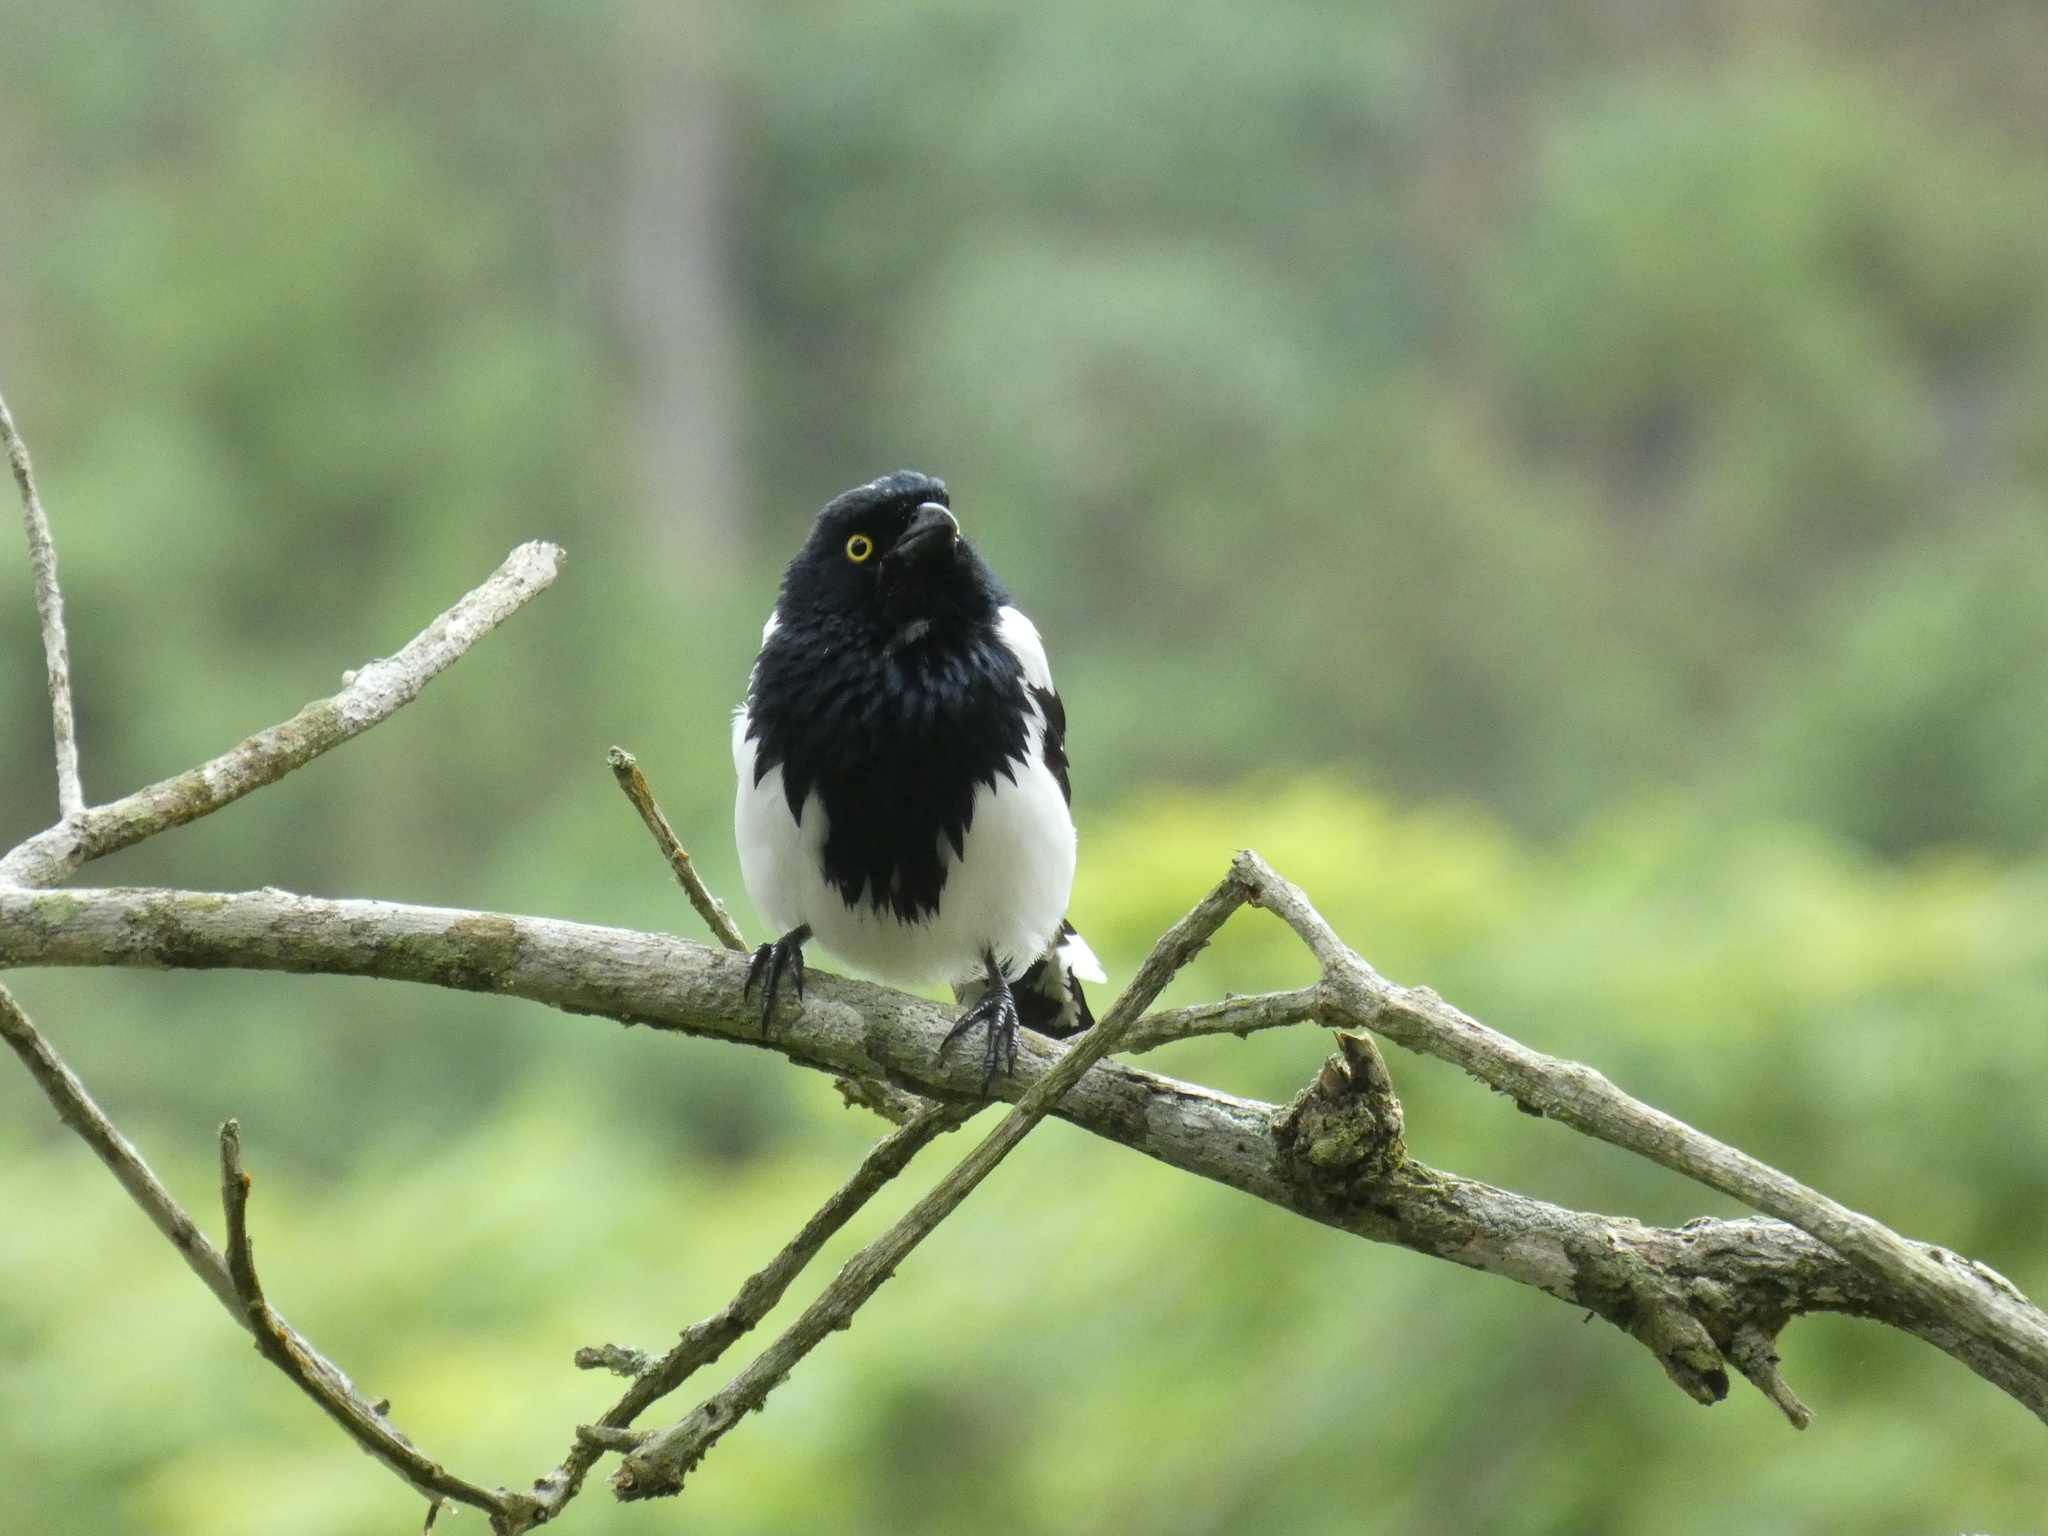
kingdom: Animalia
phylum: Chordata
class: Aves
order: Passeriformes
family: Thraupidae
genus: Cissopis
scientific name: Cissopis leverianus
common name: Magpie tanager
